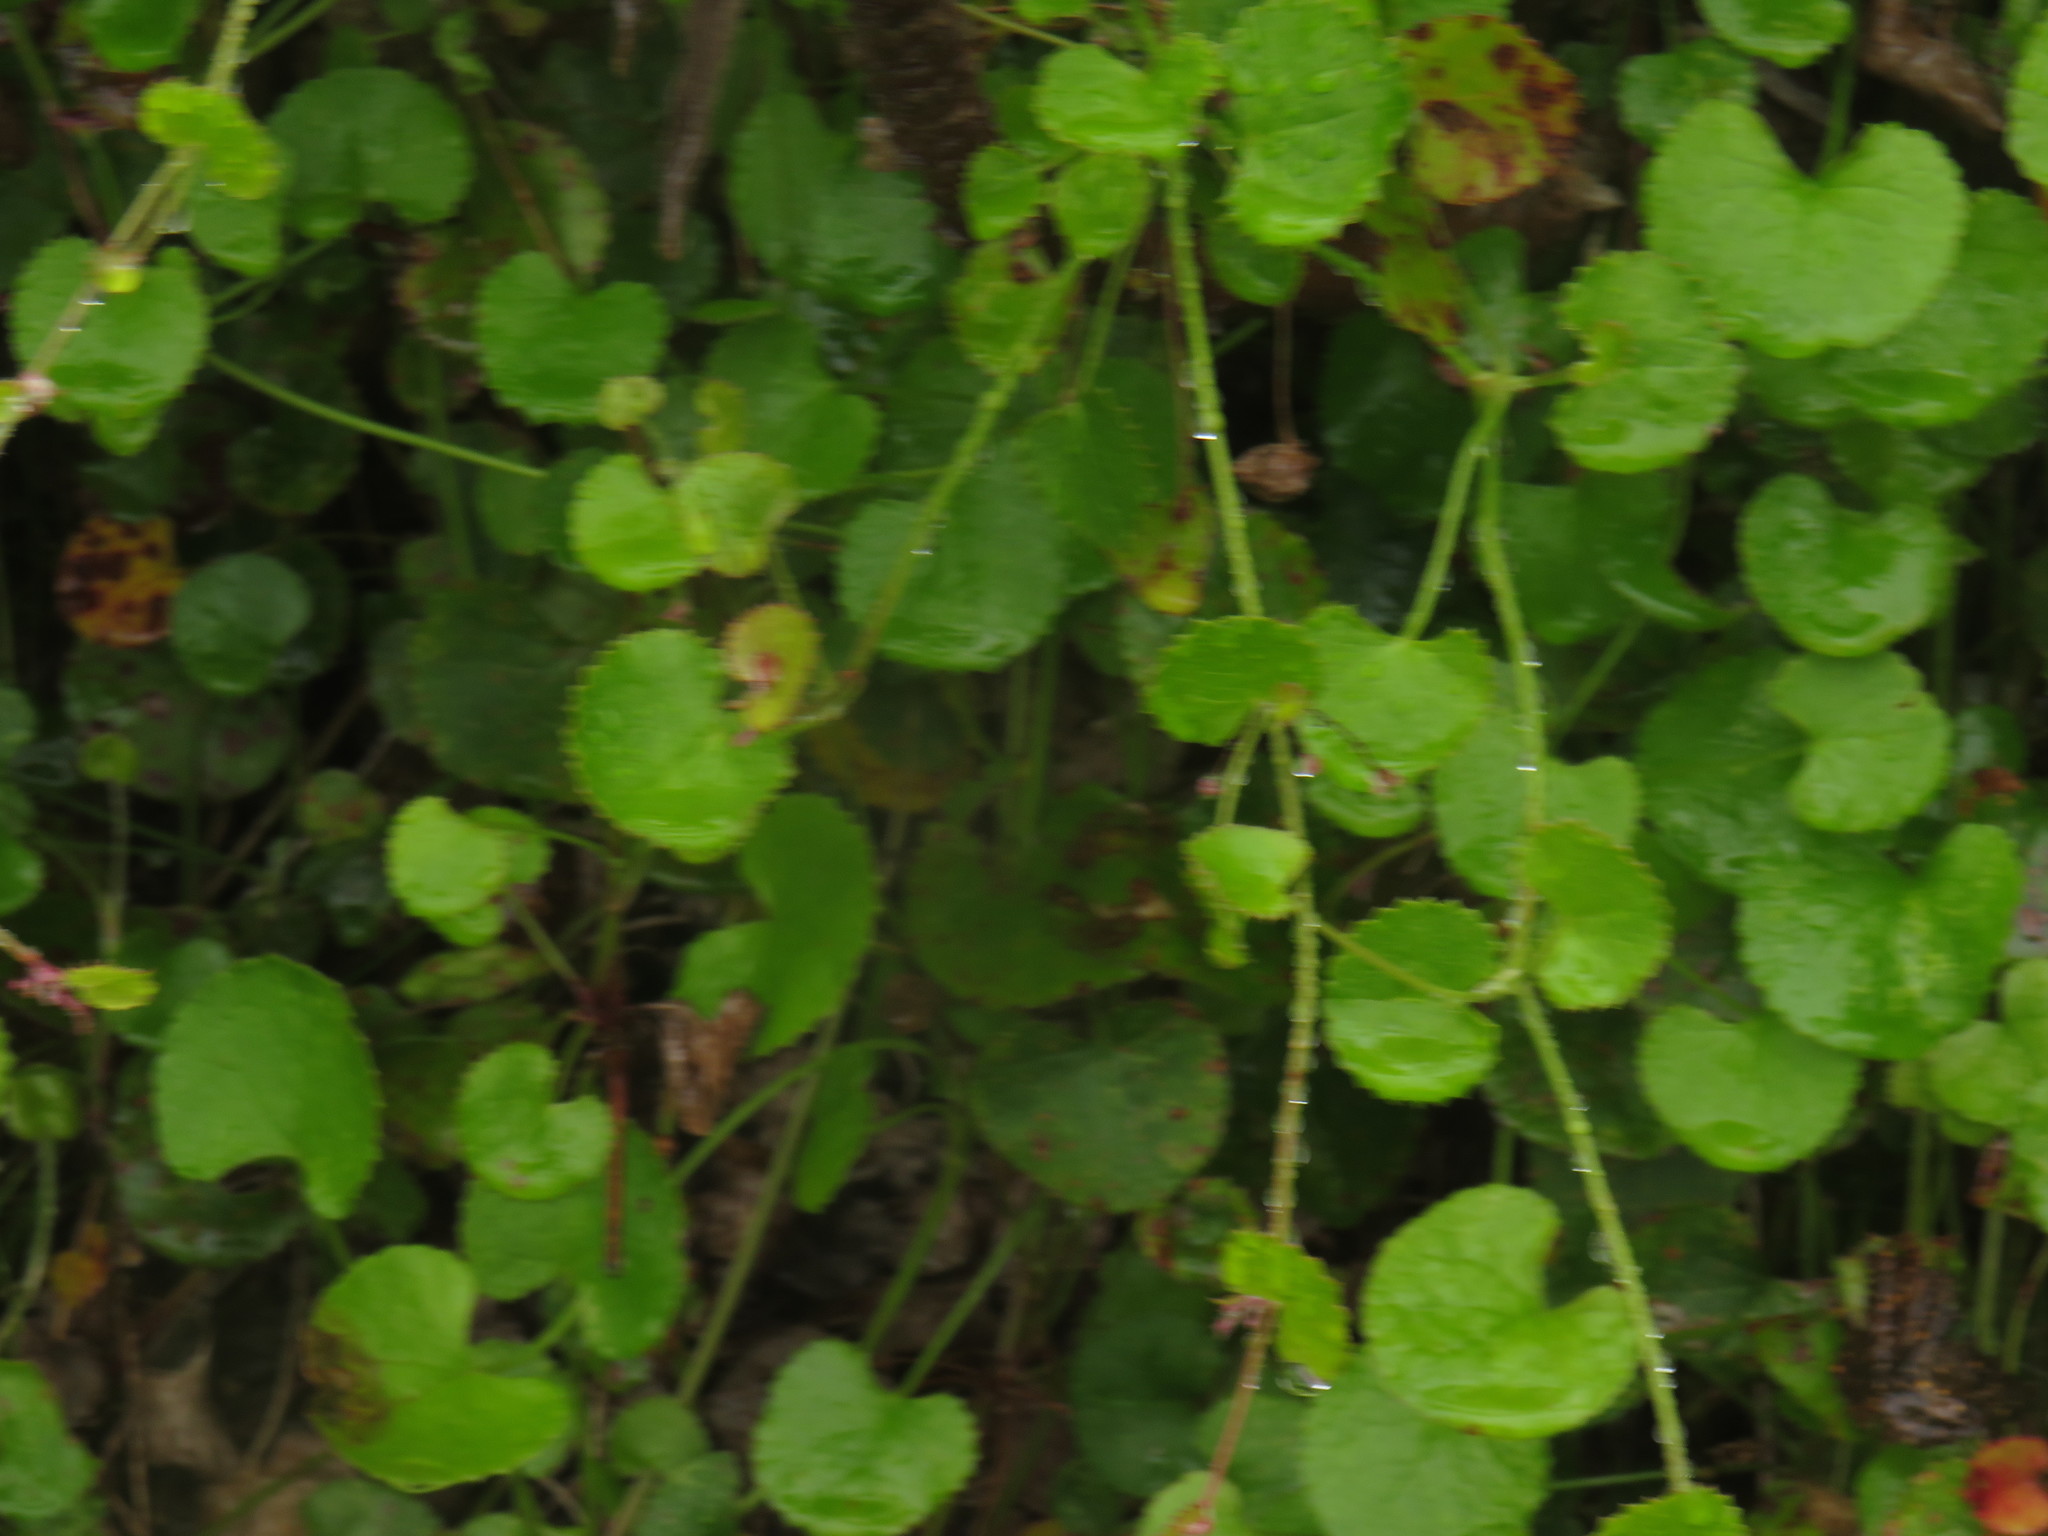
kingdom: Plantae
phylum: Tracheophyta
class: Magnoliopsida
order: Apiales
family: Apiaceae
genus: Centella
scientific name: Centella eriantha
